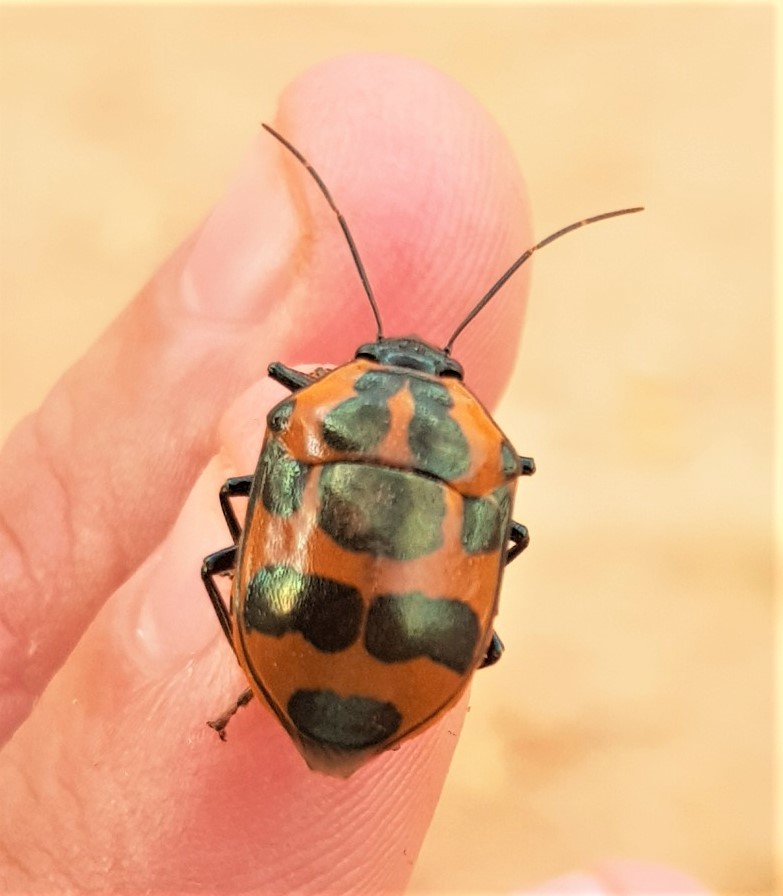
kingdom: Animalia
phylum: Arthropoda
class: Insecta
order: Hemiptera
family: Scutelleridae
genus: Augocoris
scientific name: Augocoris gomesii
